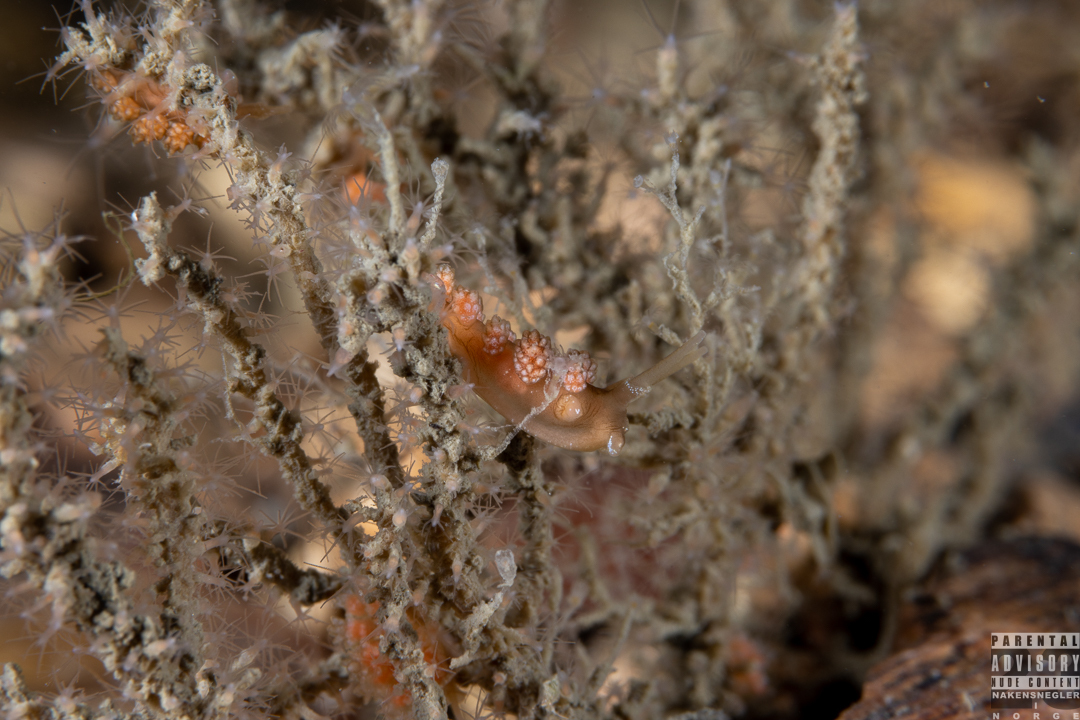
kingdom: Animalia
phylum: Mollusca
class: Gastropoda
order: Nudibranchia
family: Dotidae
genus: Doto
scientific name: Doto fragilis
